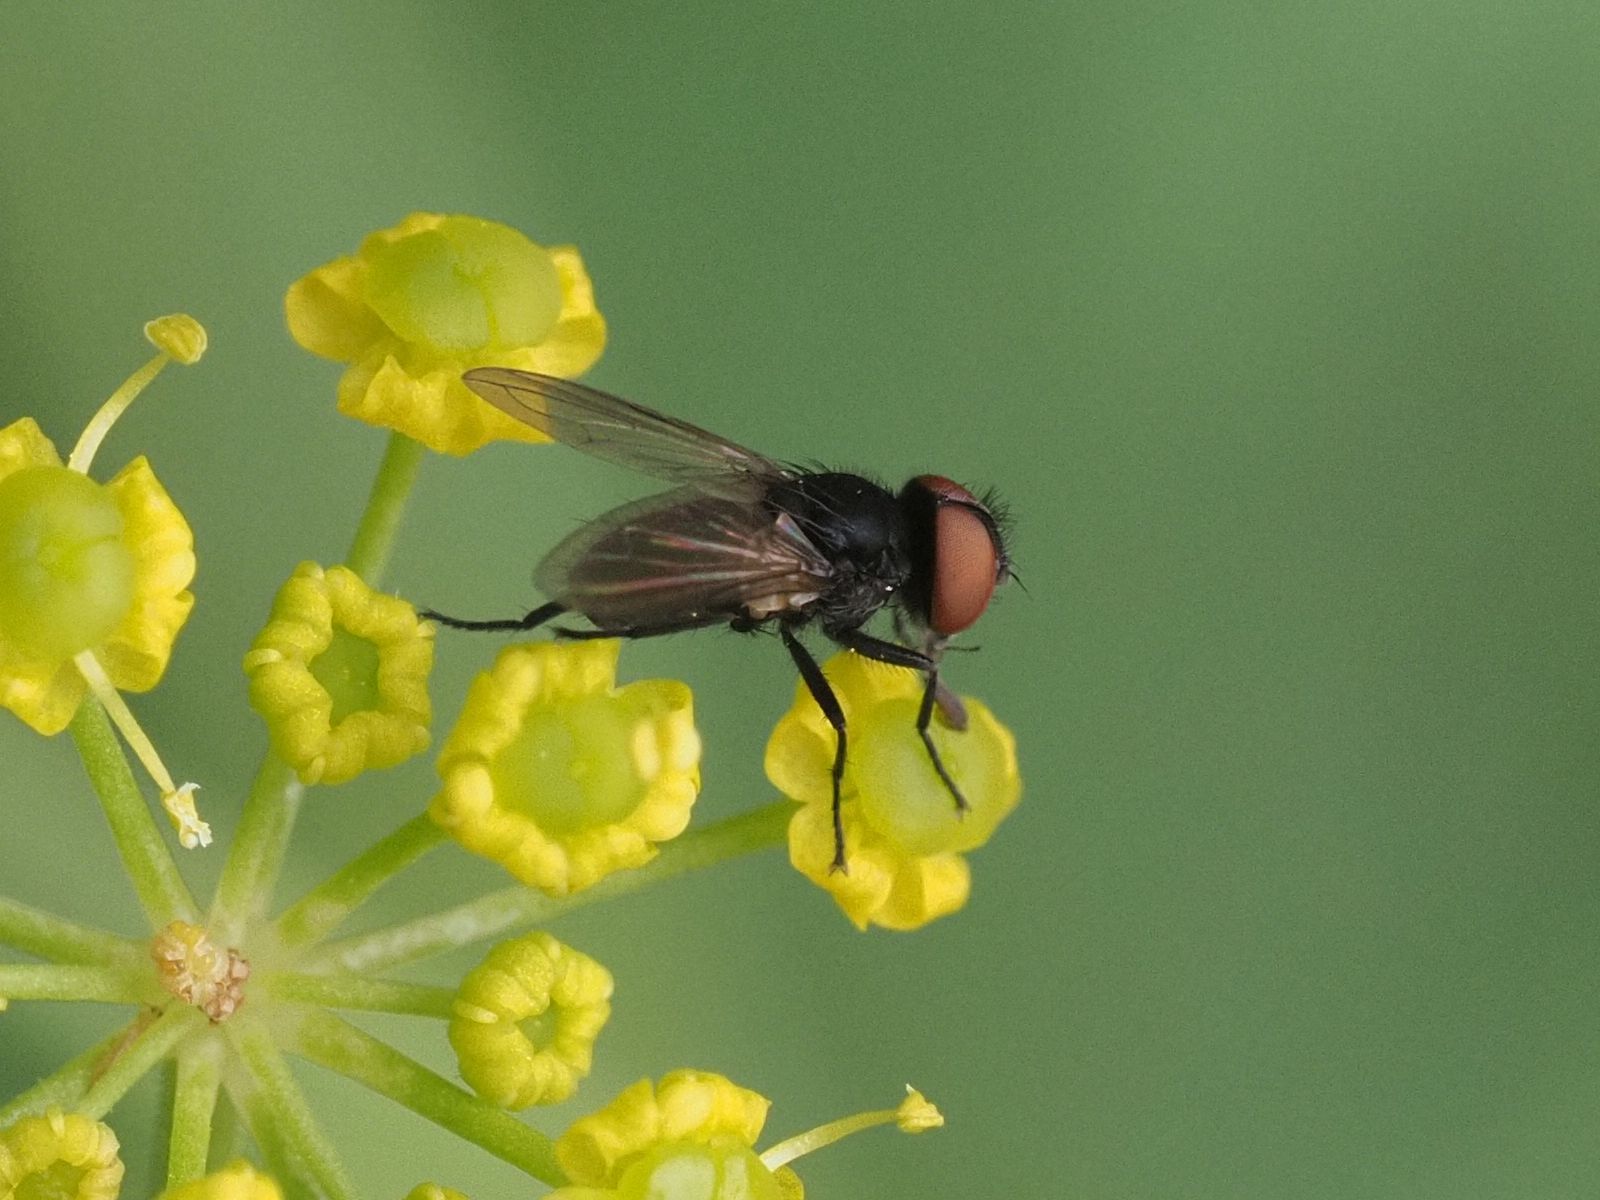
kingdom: Animalia
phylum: Arthropoda
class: Insecta
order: Diptera
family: Tachinidae
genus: Phasia
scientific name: Phasia barbifrons
